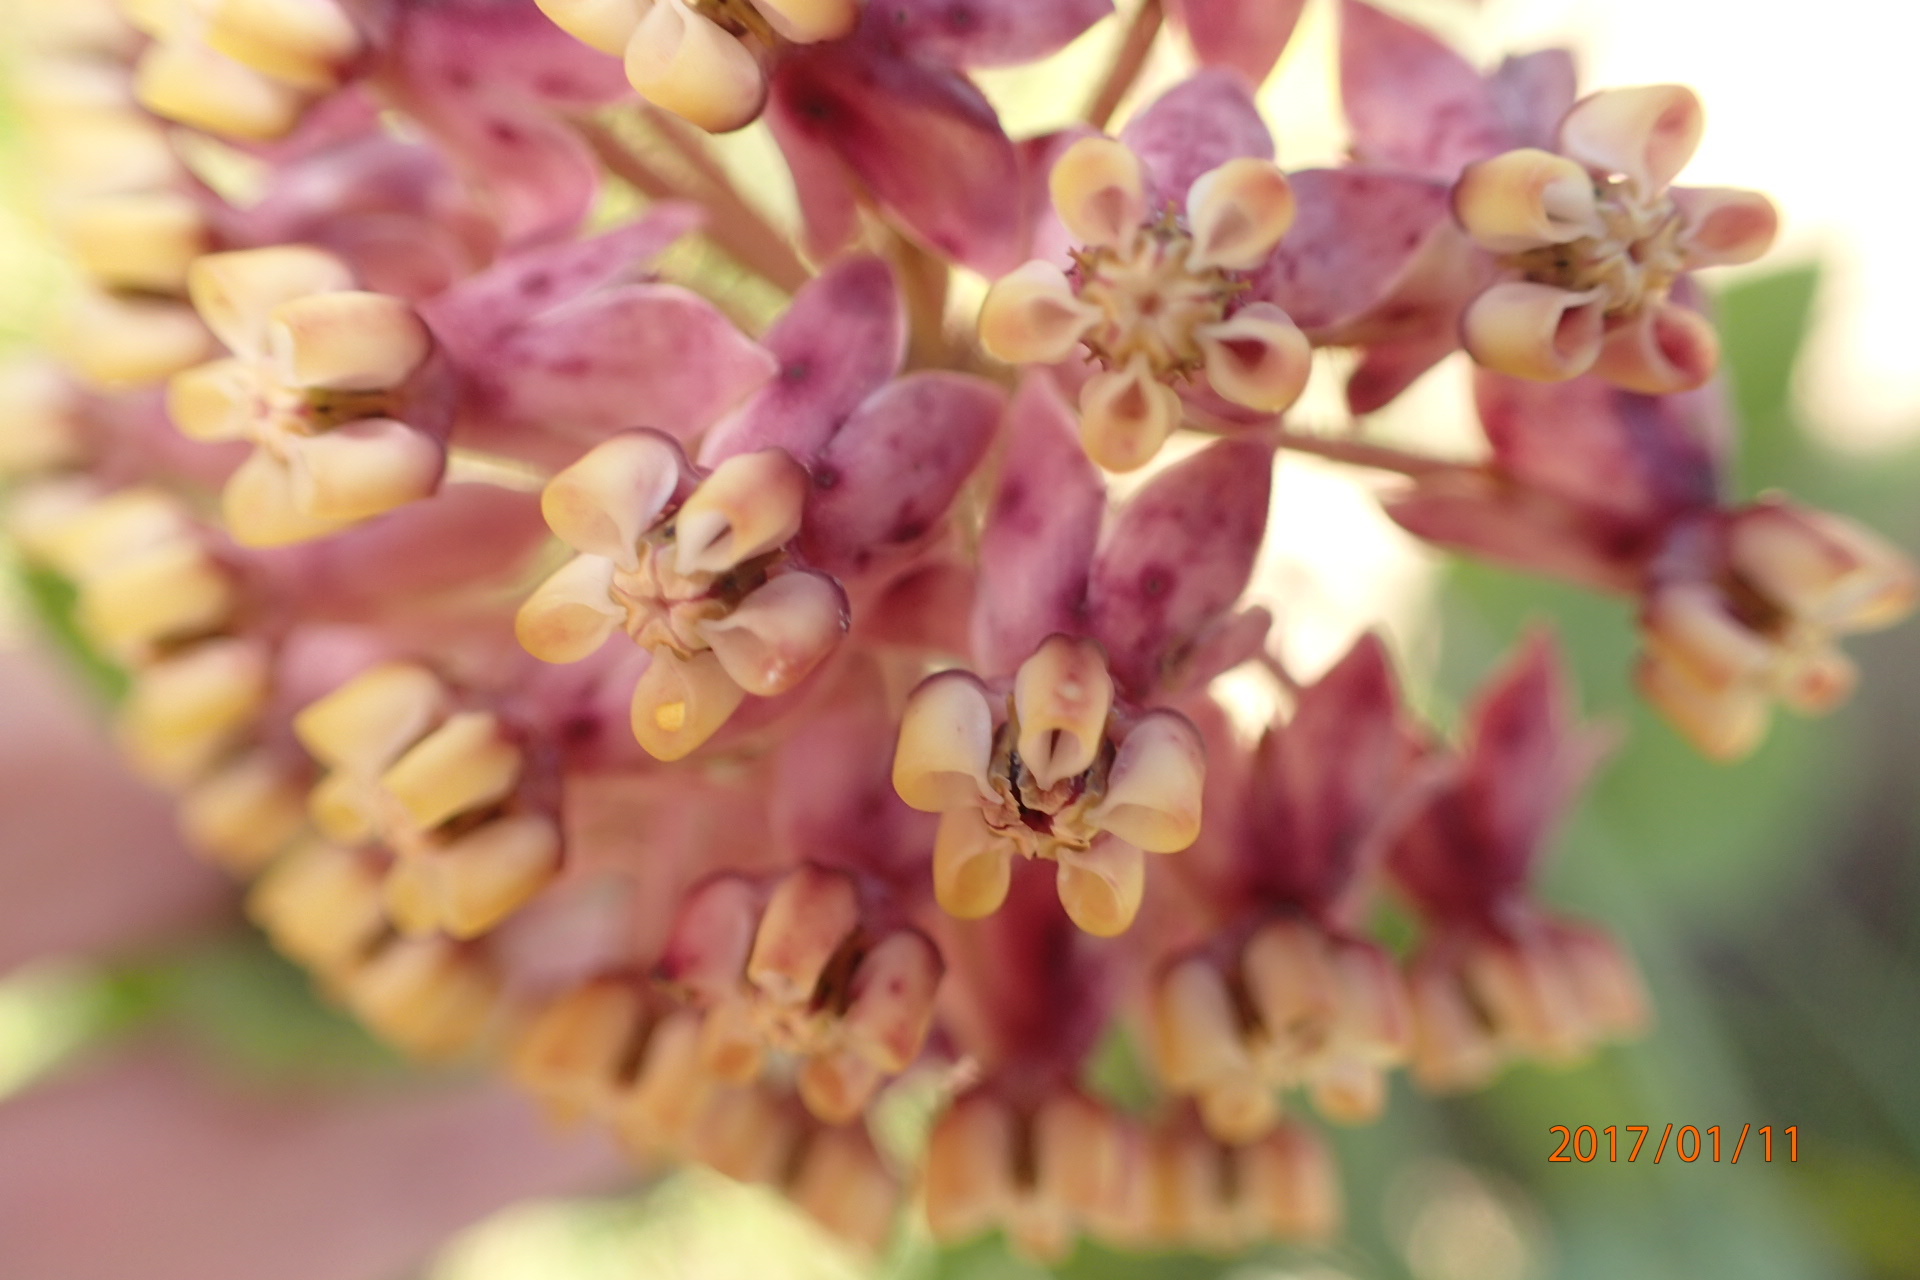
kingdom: Plantae
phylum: Tracheophyta
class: Magnoliopsida
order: Gentianales
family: Apocynaceae
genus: Asclepias
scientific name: Asclepias albens
